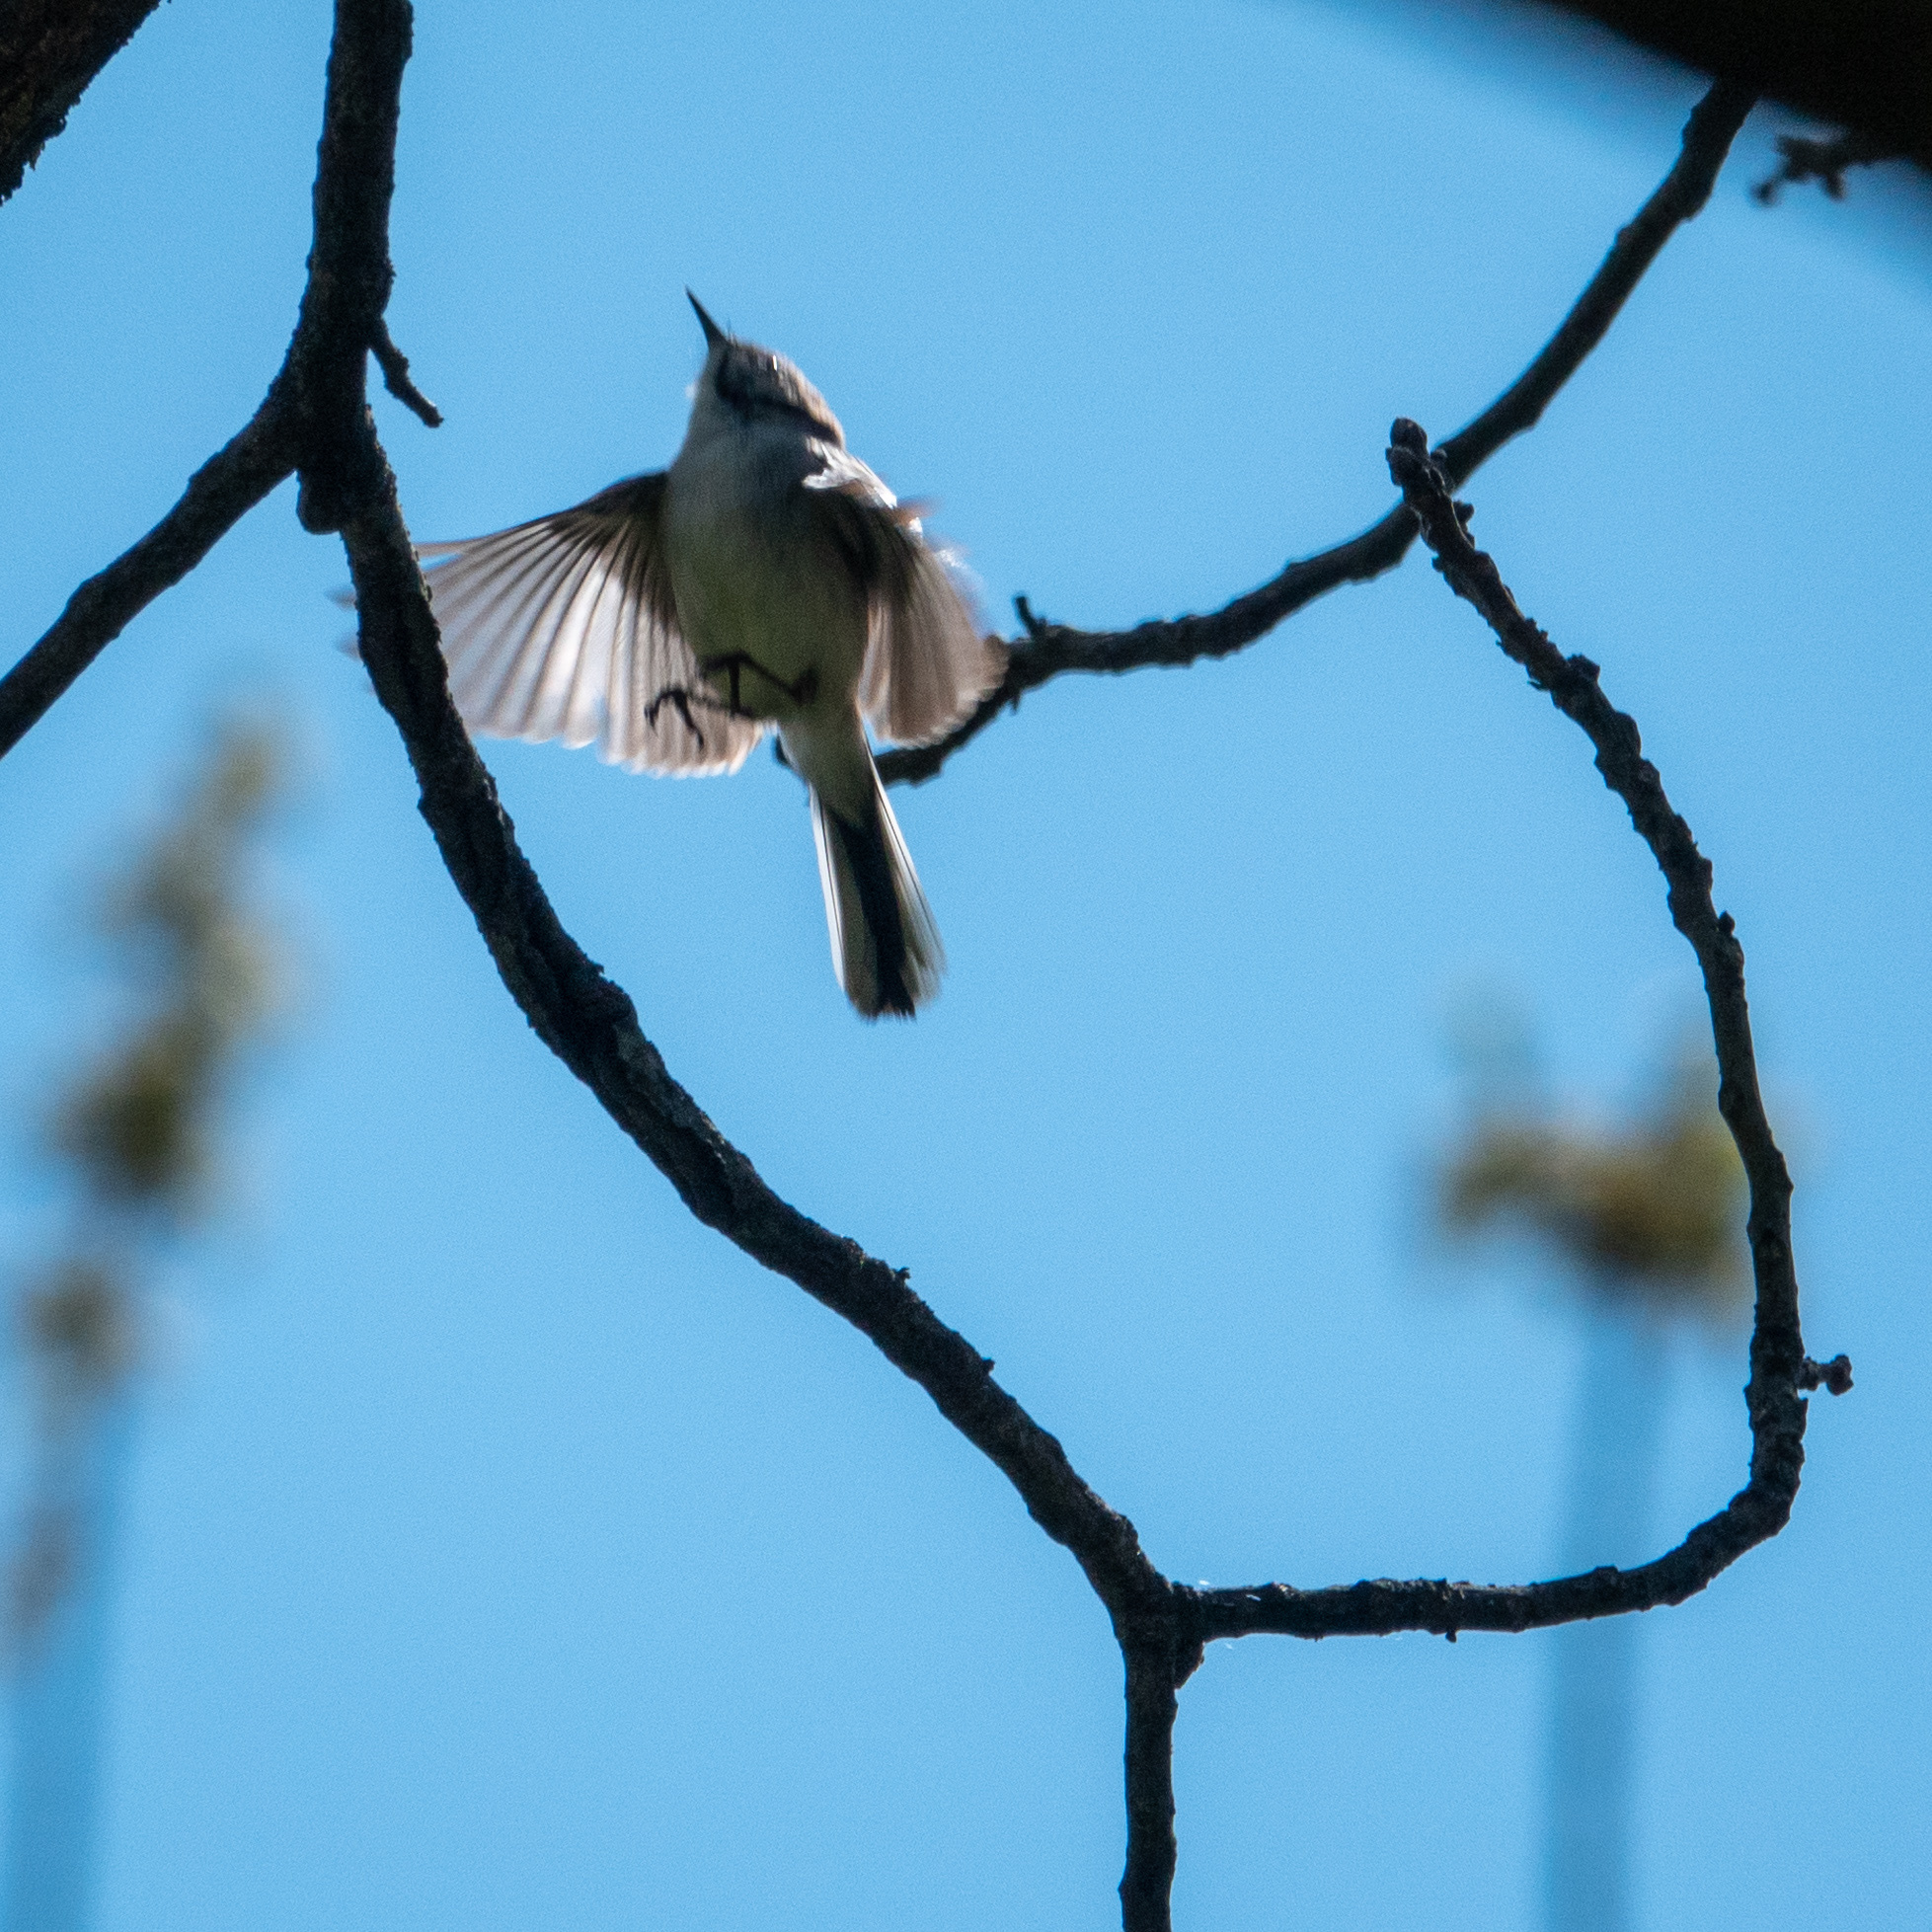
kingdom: Animalia
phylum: Chordata
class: Aves
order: Passeriformes
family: Polioptilidae
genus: Polioptila
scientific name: Polioptila caerulea
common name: Blue-gray gnatcatcher
